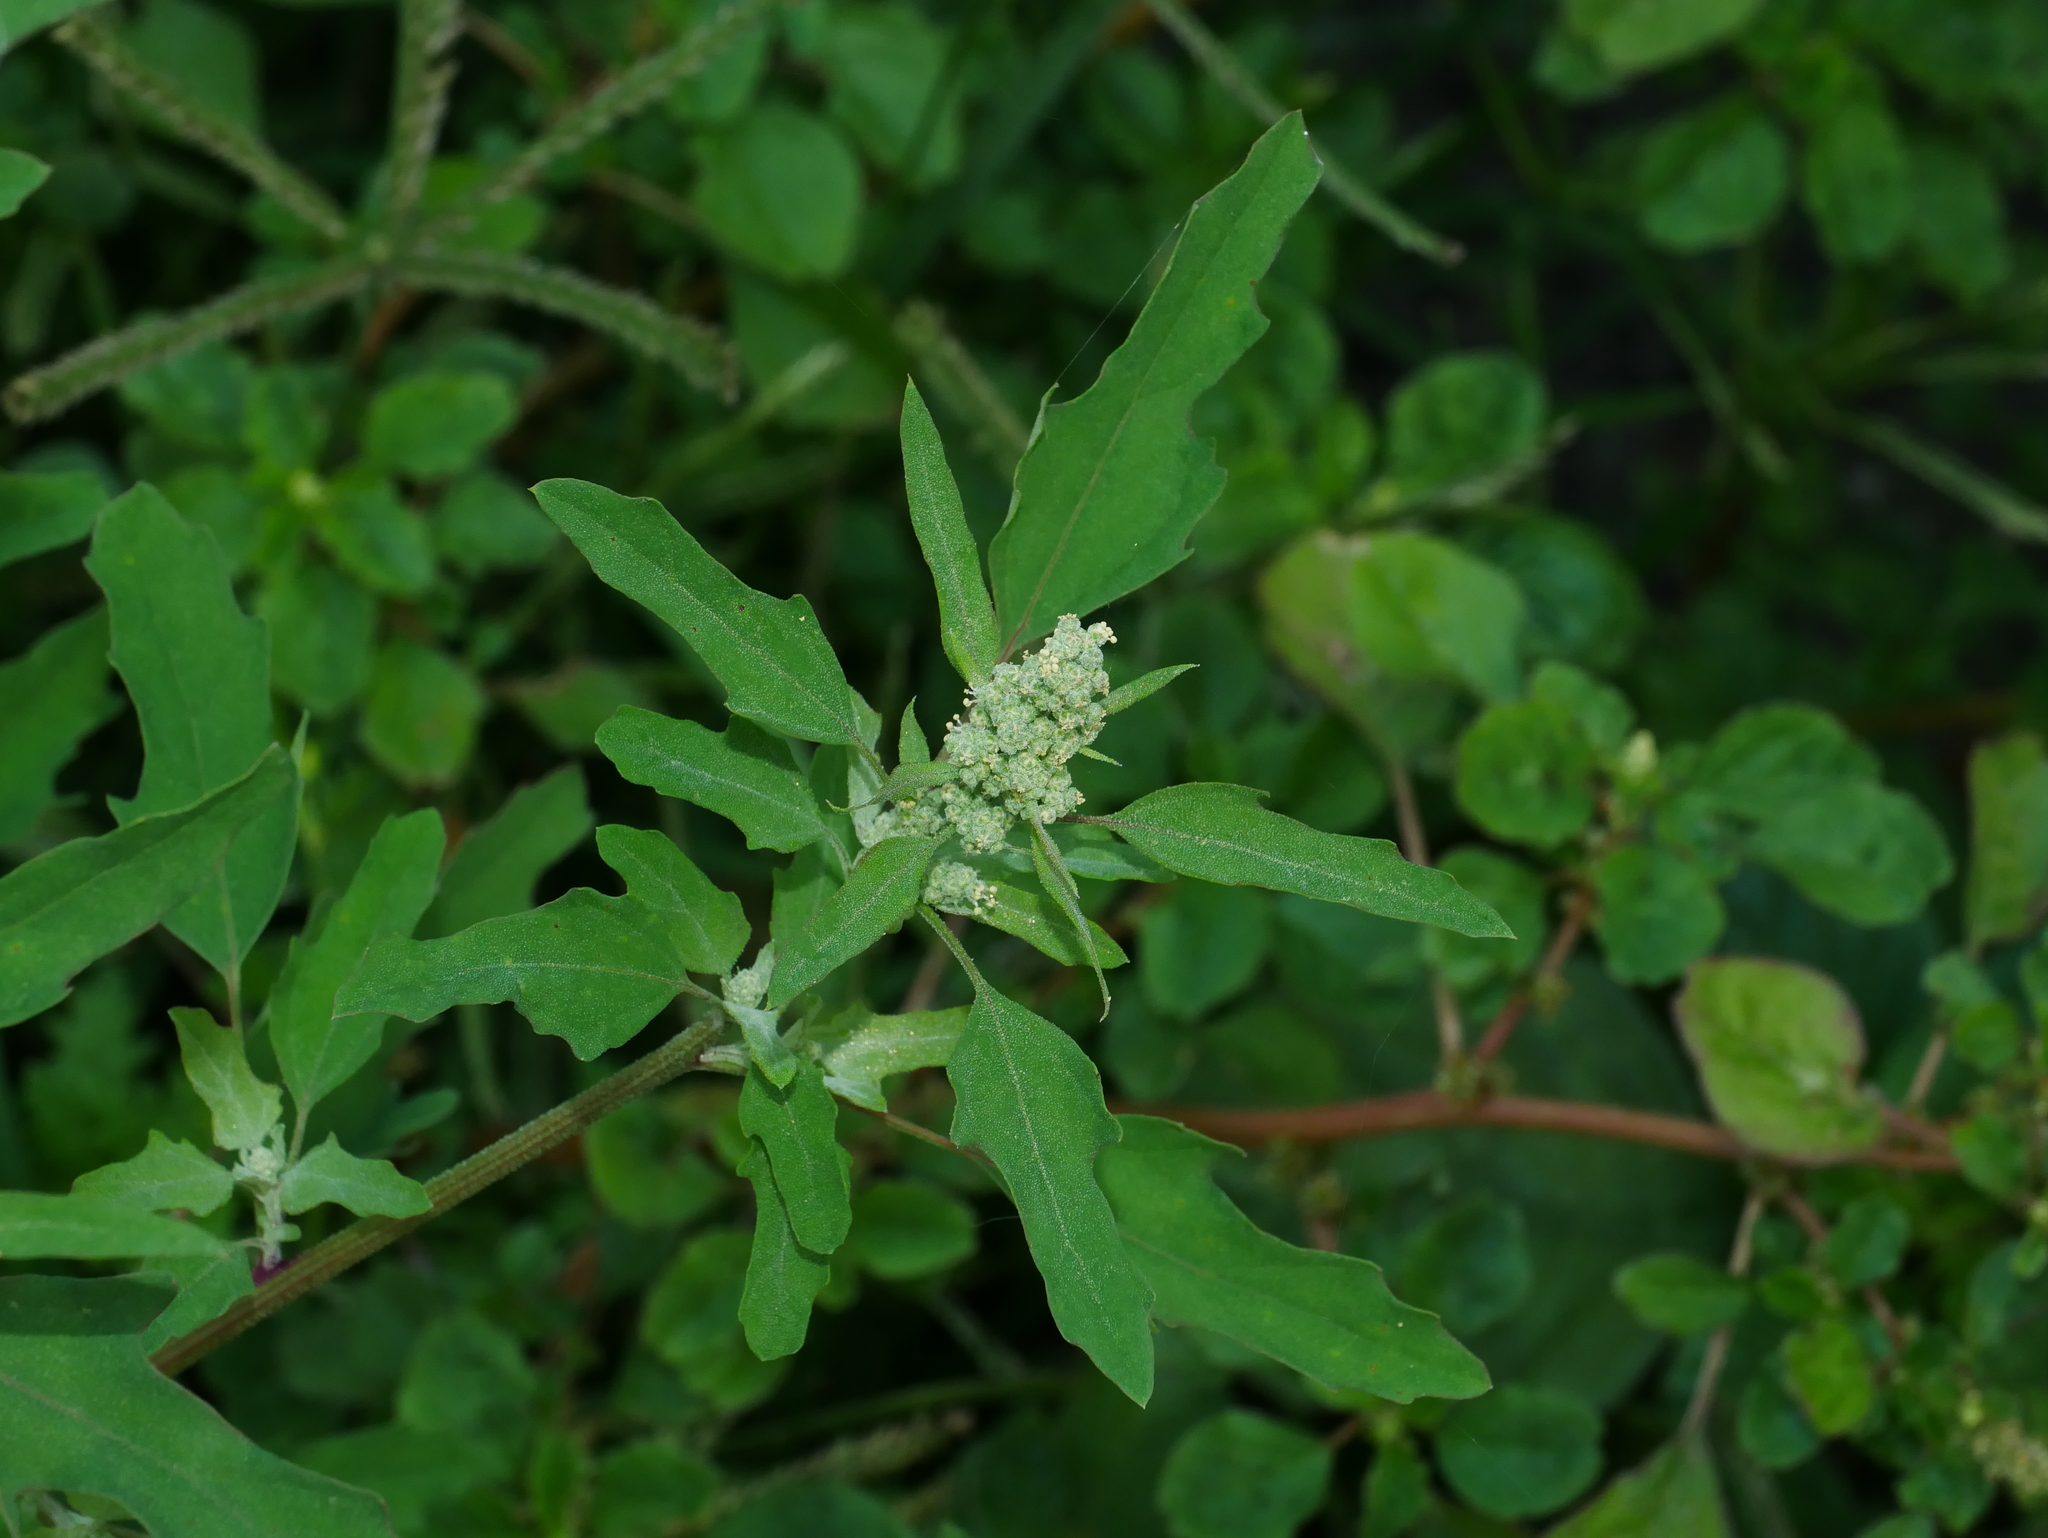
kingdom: Plantae
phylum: Tracheophyta
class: Magnoliopsida
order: Caryophyllales
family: Amaranthaceae
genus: Chenopodium
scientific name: Chenopodium ficifolium
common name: Fig-leaved goosefoot
